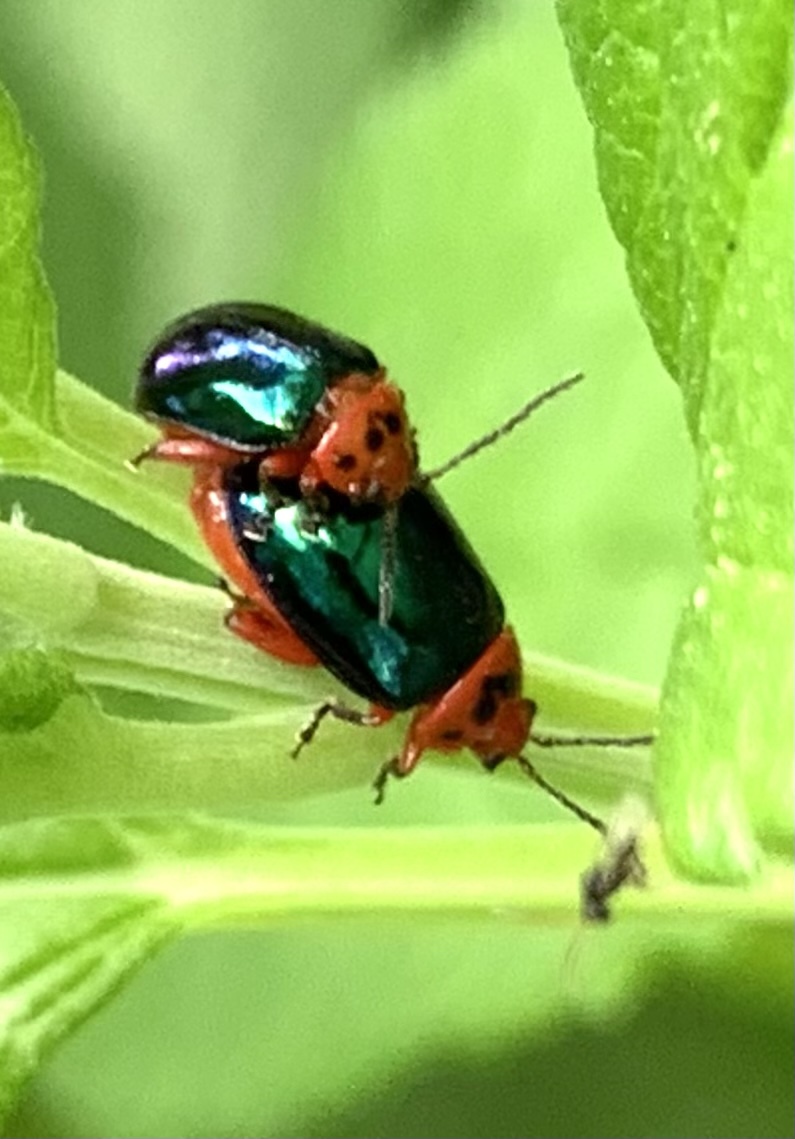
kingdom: Animalia
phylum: Arthropoda
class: Insecta
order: Coleoptera
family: Chrysomelidae
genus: Kuschelina
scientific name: Kuschelina gibbitarsa
